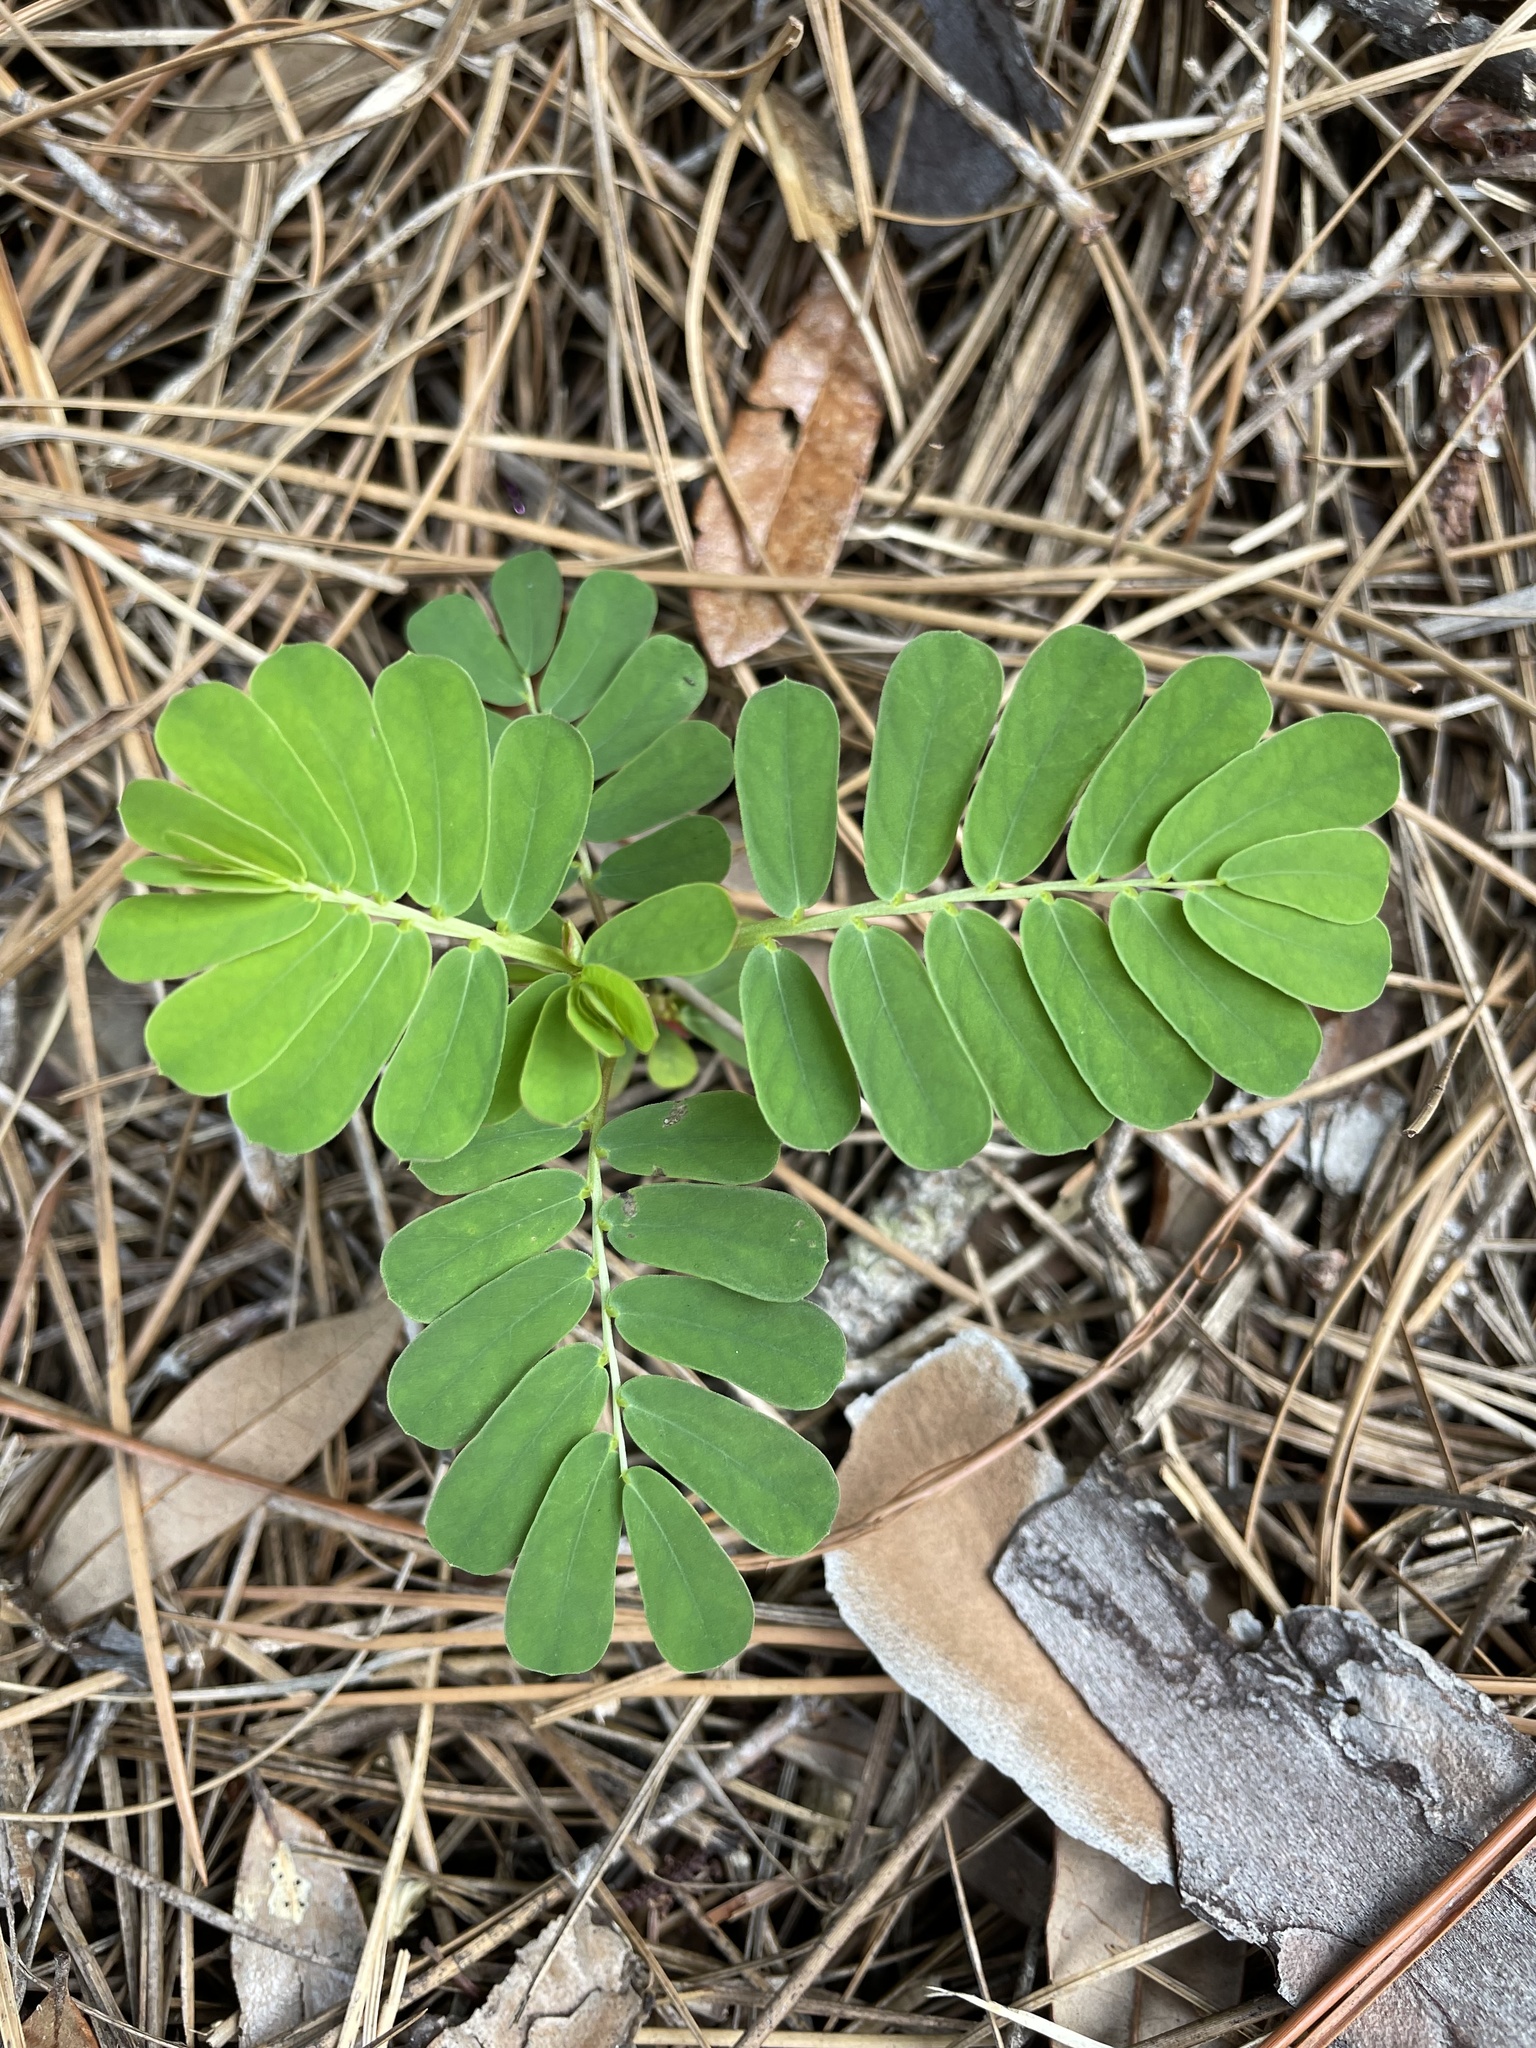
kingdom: Plantae
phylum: Tracheophyta
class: Magnoliopsida
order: Malpighiales
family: Phyllanthaceae
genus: Phyllanthus
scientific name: Phyllanthus urinaria
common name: Chamber bitter
